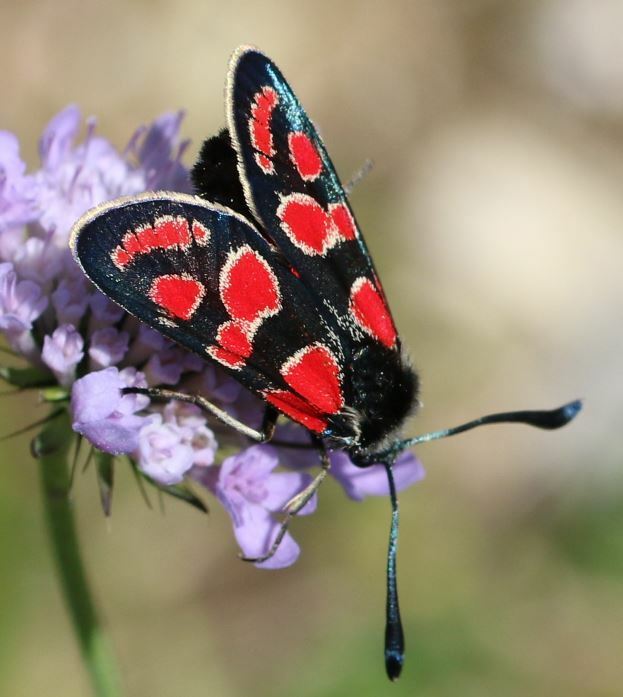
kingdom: Animalia
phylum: Arthropoda
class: Insecta
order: Lepidoptera
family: Zygaenidae
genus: Zygaena
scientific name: Zygaena carniolica
